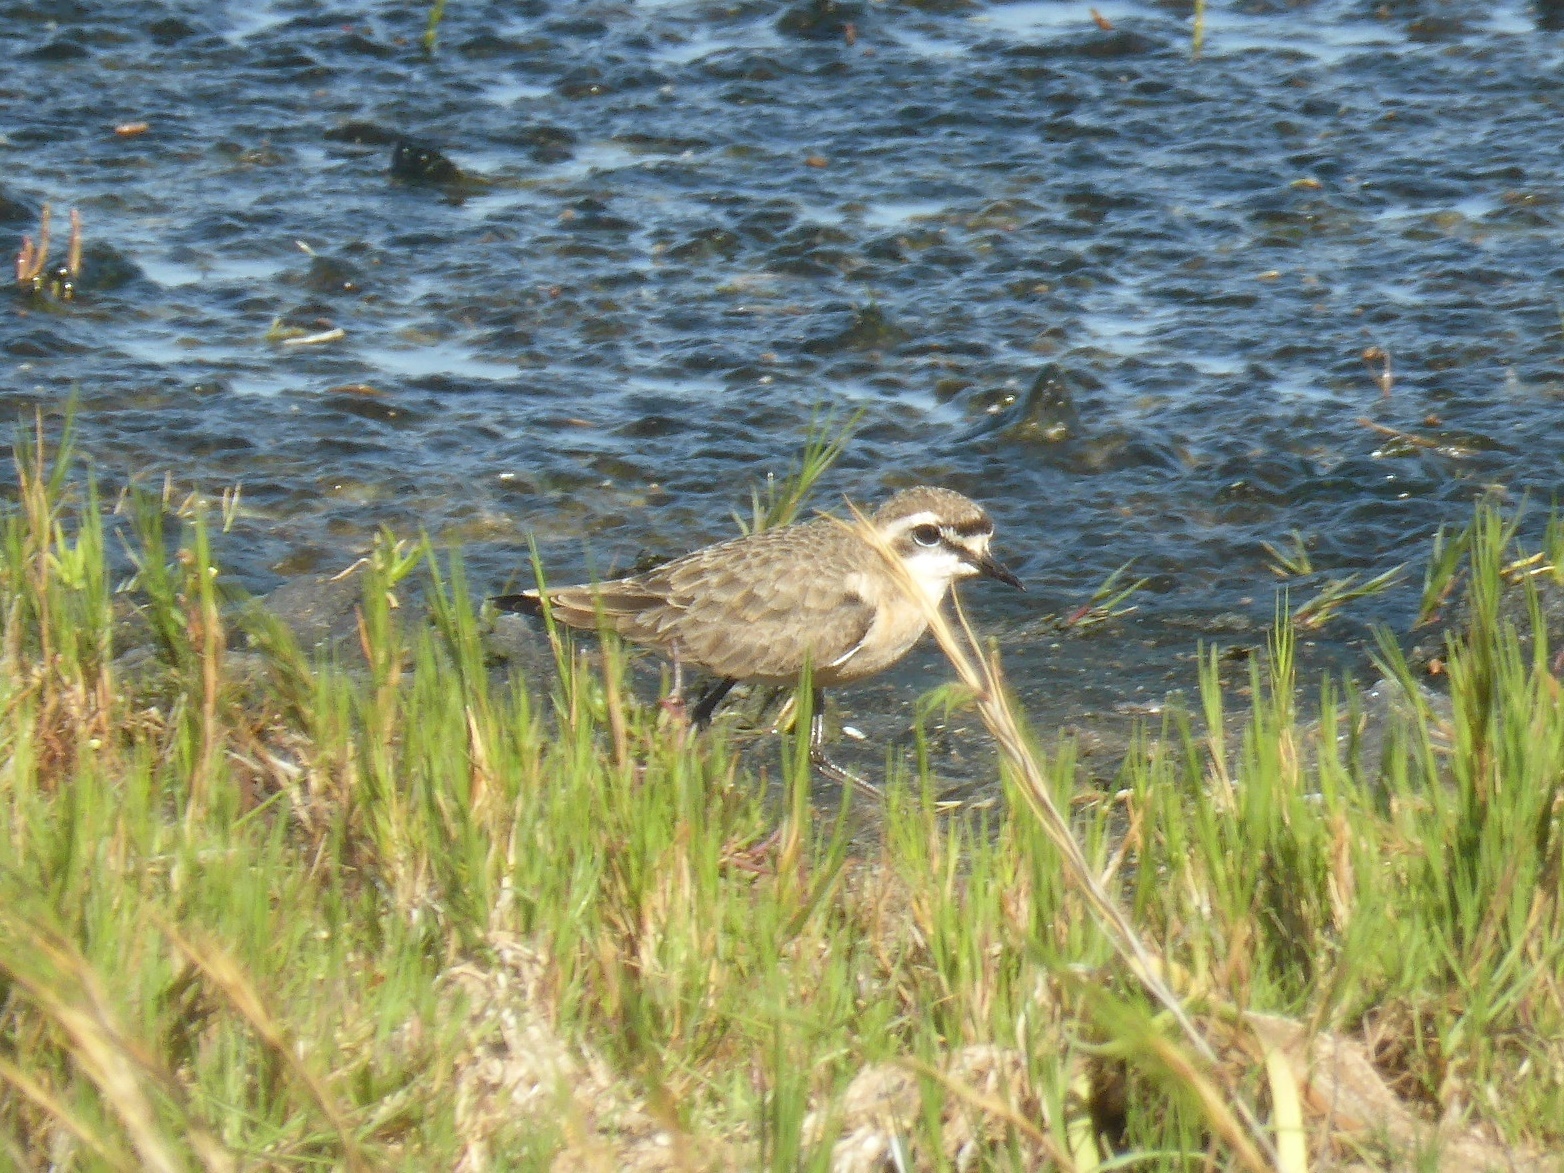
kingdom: Animalia
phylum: Chordata
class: Aves
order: Charadriiformes
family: Charadriidae
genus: Anarhynchus
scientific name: Anarhynchus
